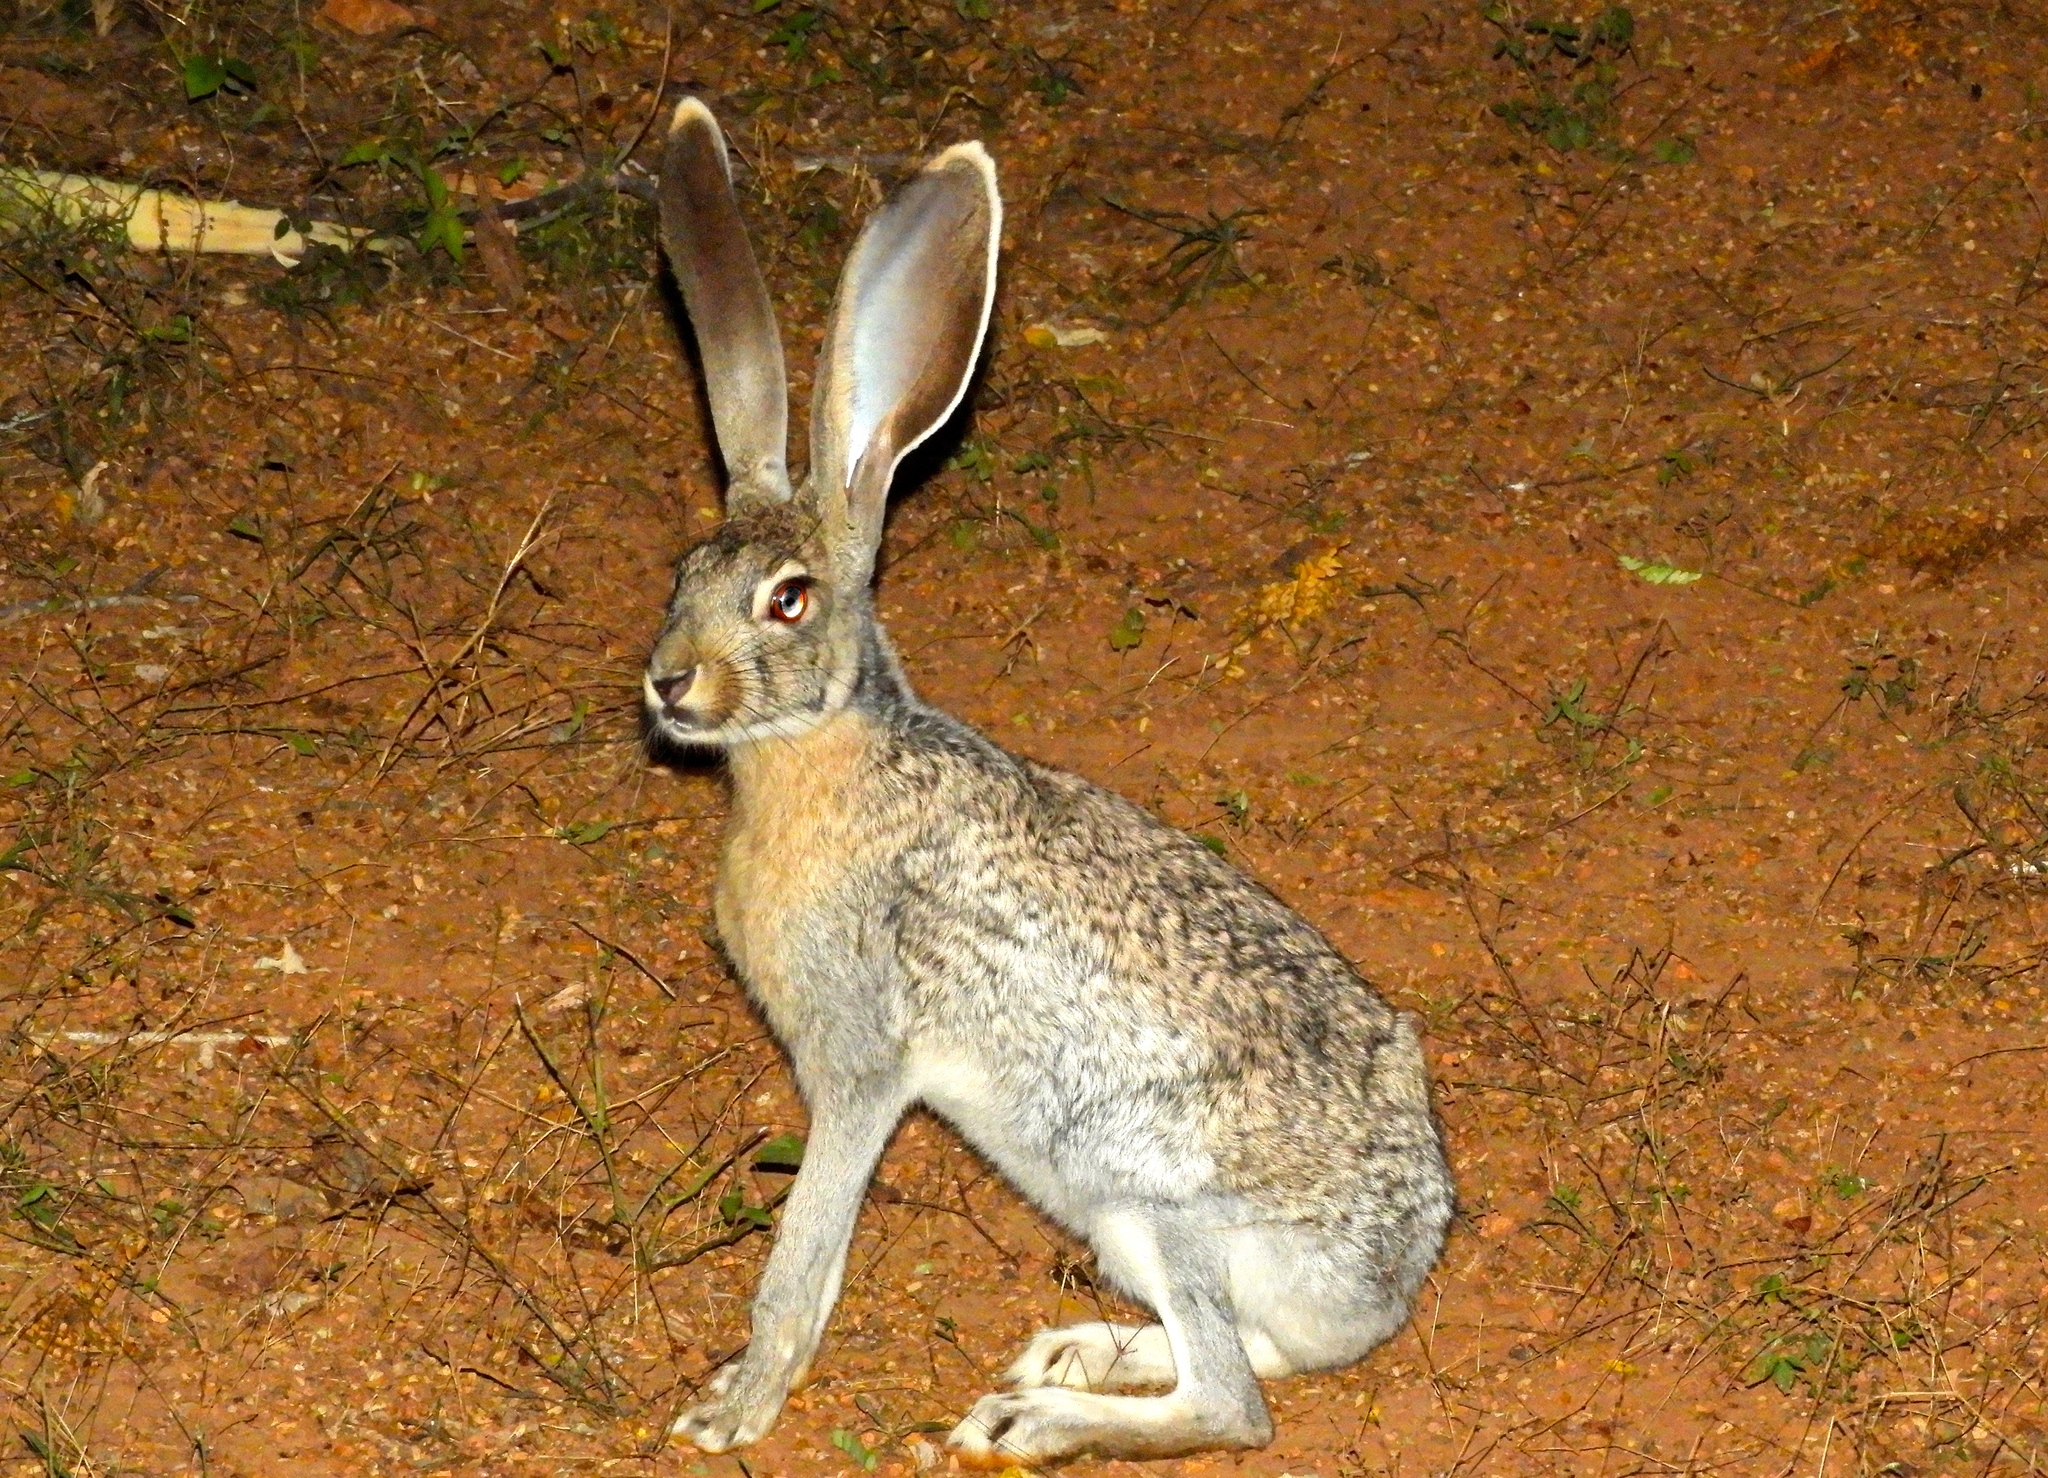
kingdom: Animalia
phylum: Chordata
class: Mammalia
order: Lagomorpha
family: Leporidae
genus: Lepus
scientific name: Lepus alleni
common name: Antelope jackrabbit
